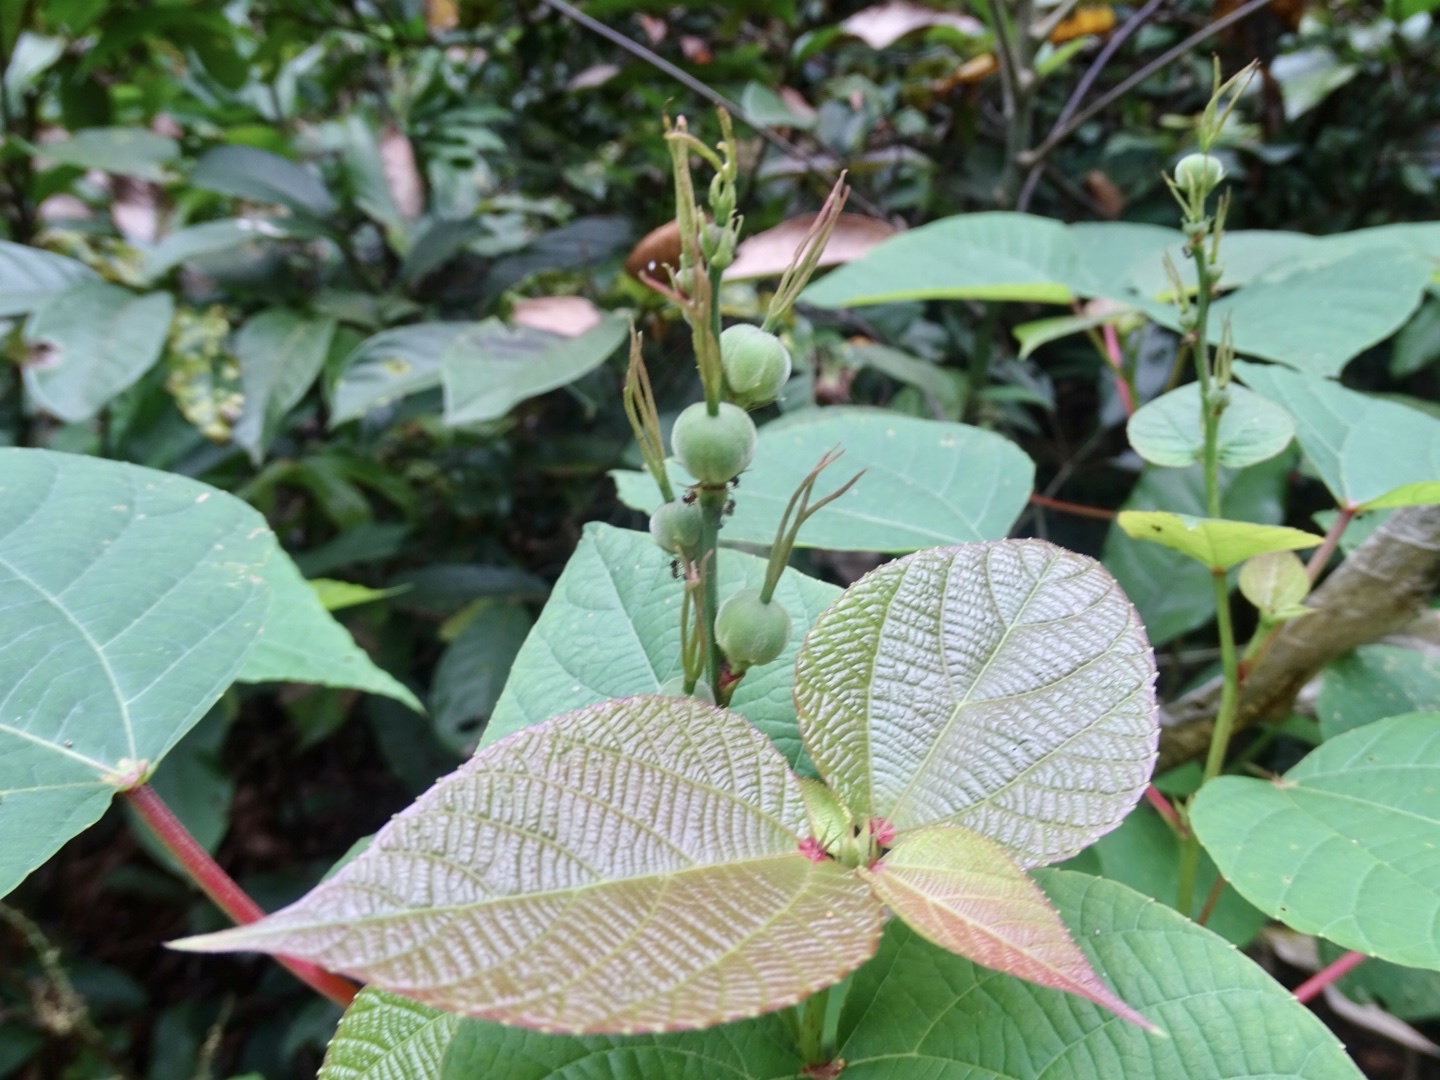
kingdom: Plantae
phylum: Tracheophyta
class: Magnoliopsida
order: Malpighiales
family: Euphorbiaceae
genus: Alchornea
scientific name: Alchornea trewioides
